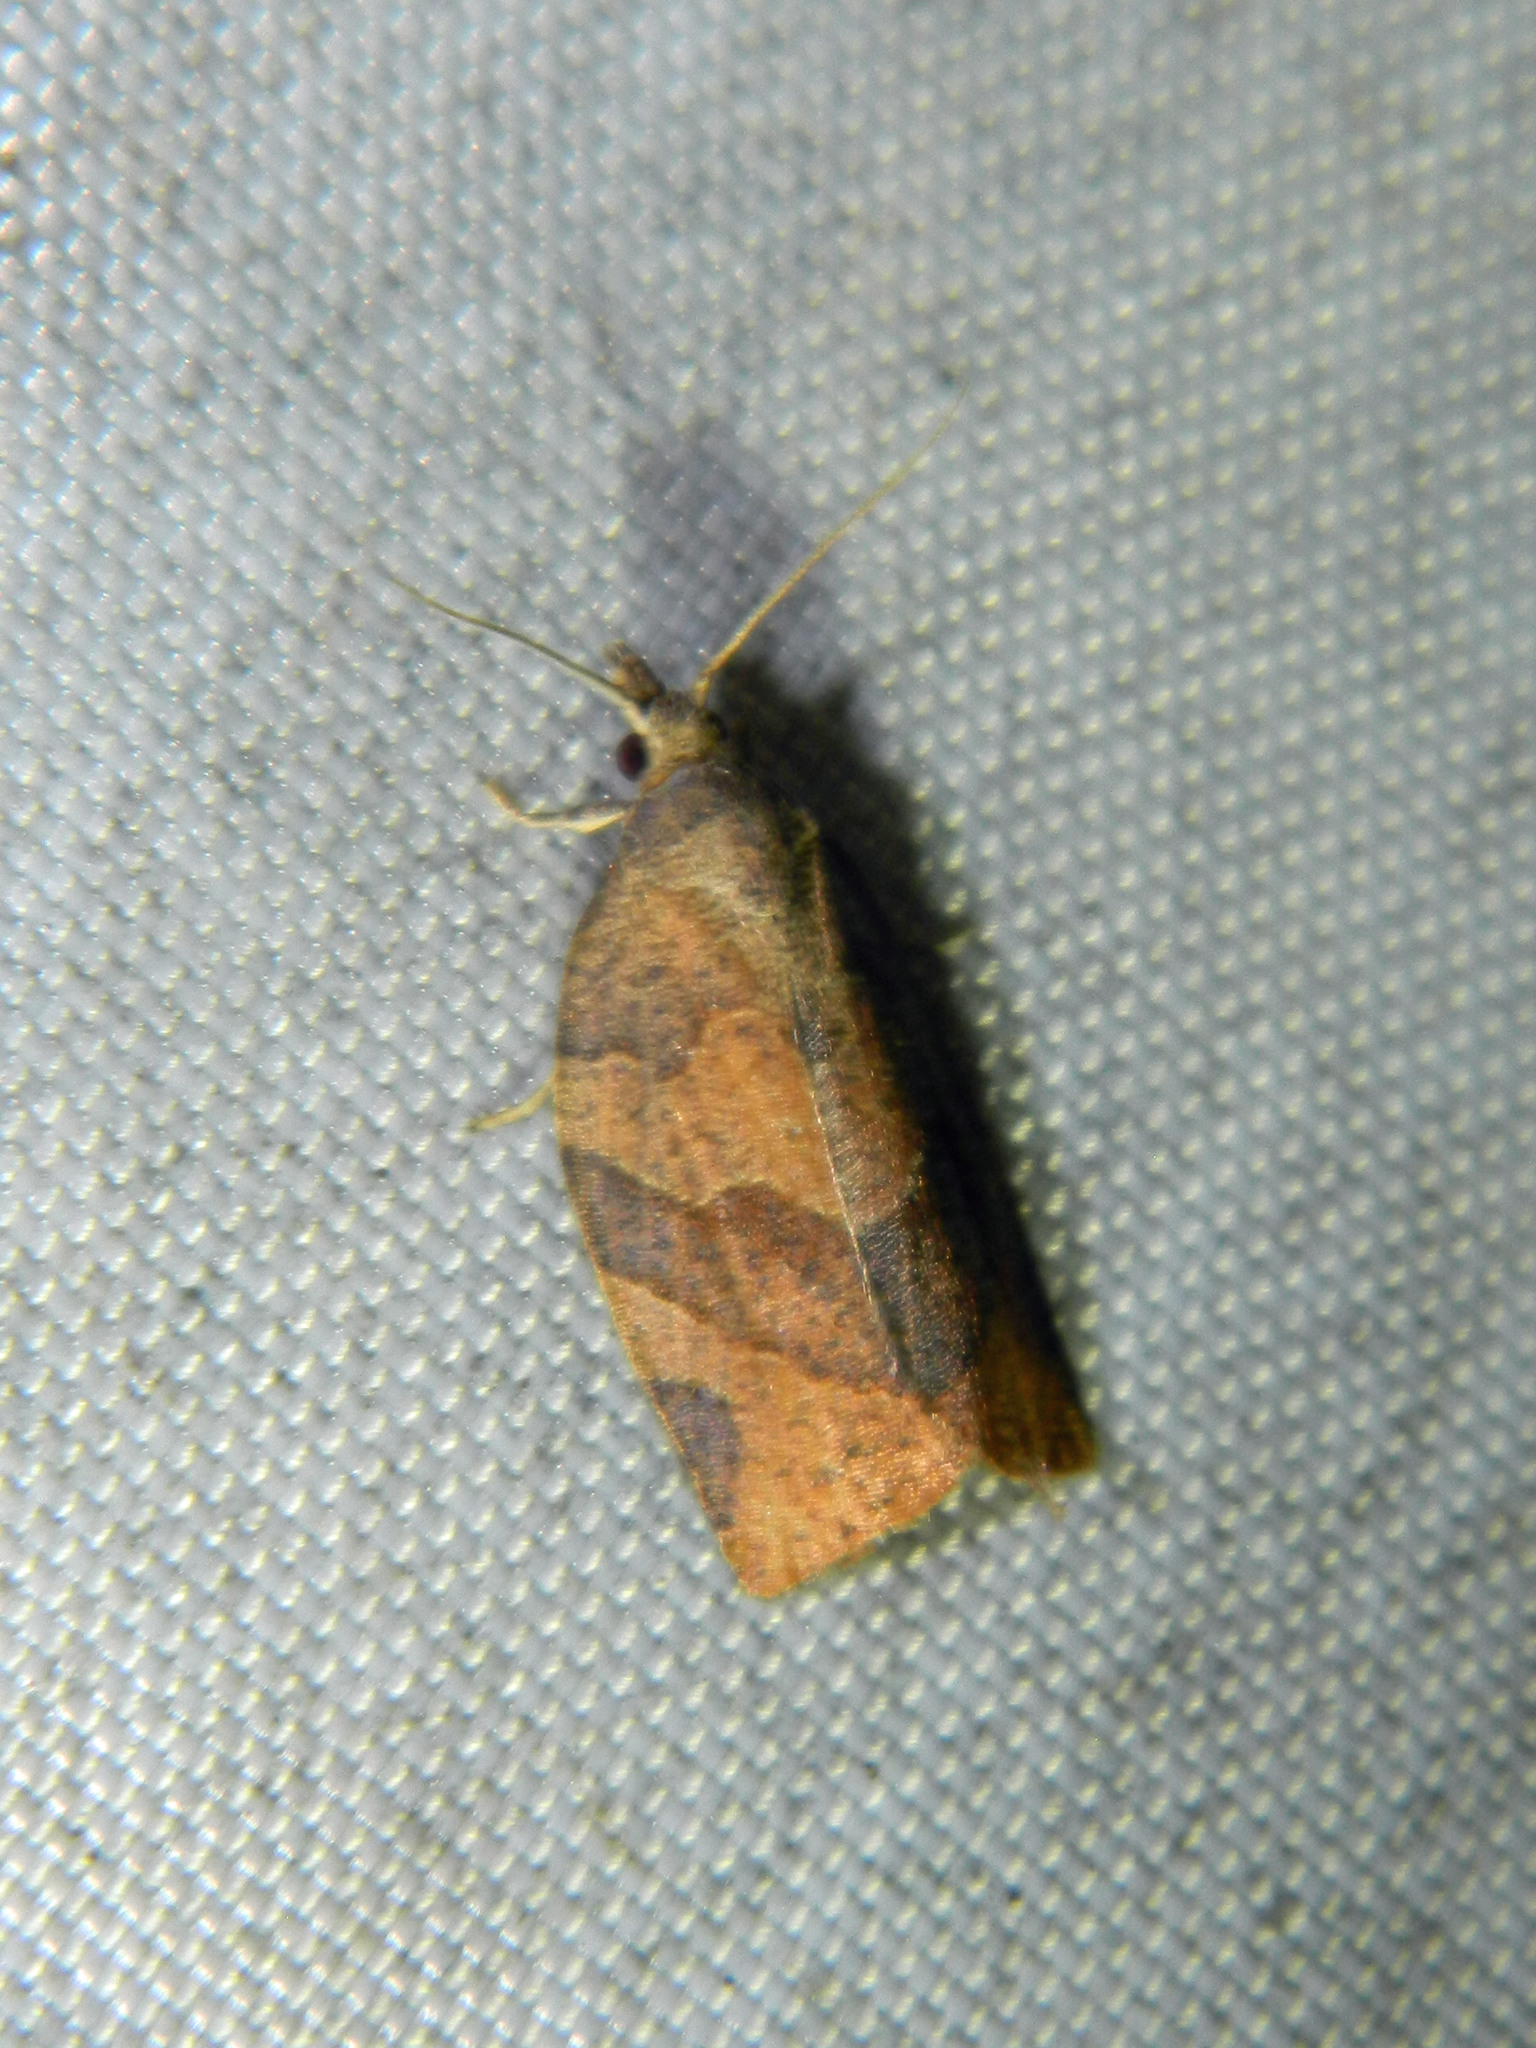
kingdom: Animalia
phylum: Arthropoda
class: Insecta
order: Lepidoptera
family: Tortricidae
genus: Pandemis
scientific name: Pandemis canadana
